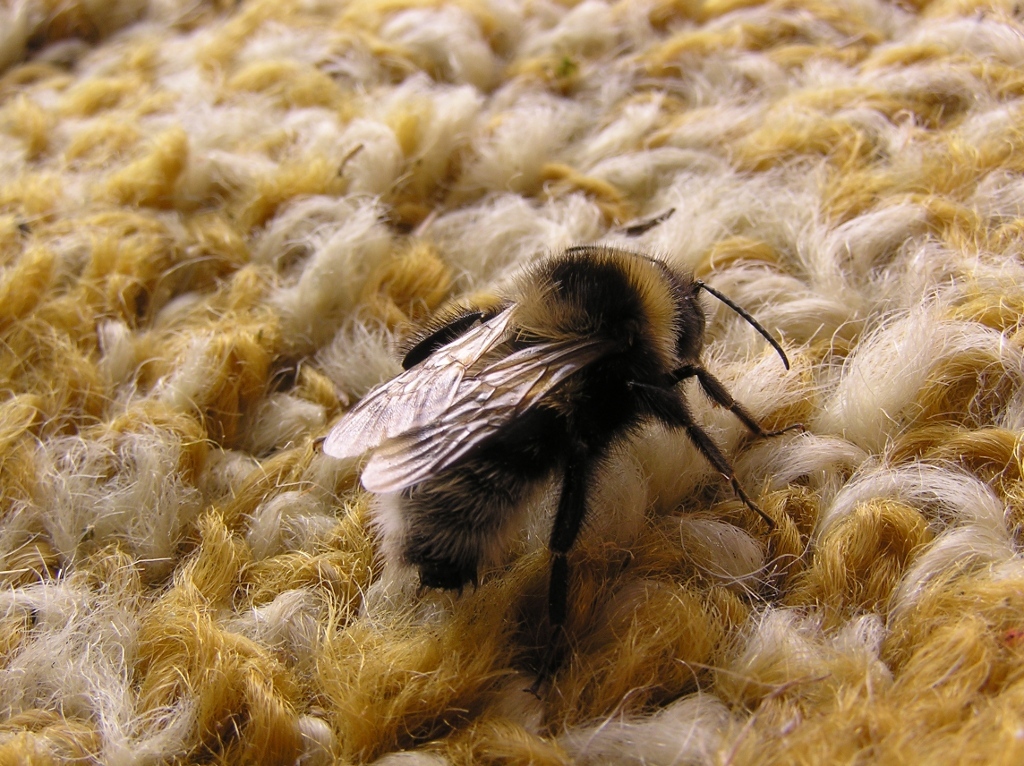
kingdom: Animalia
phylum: Arthropoda
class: Insecta
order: Hymenoptera
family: Apidae
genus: Bombus
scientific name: Bombus ruderatus
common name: Large garden bumblebee
